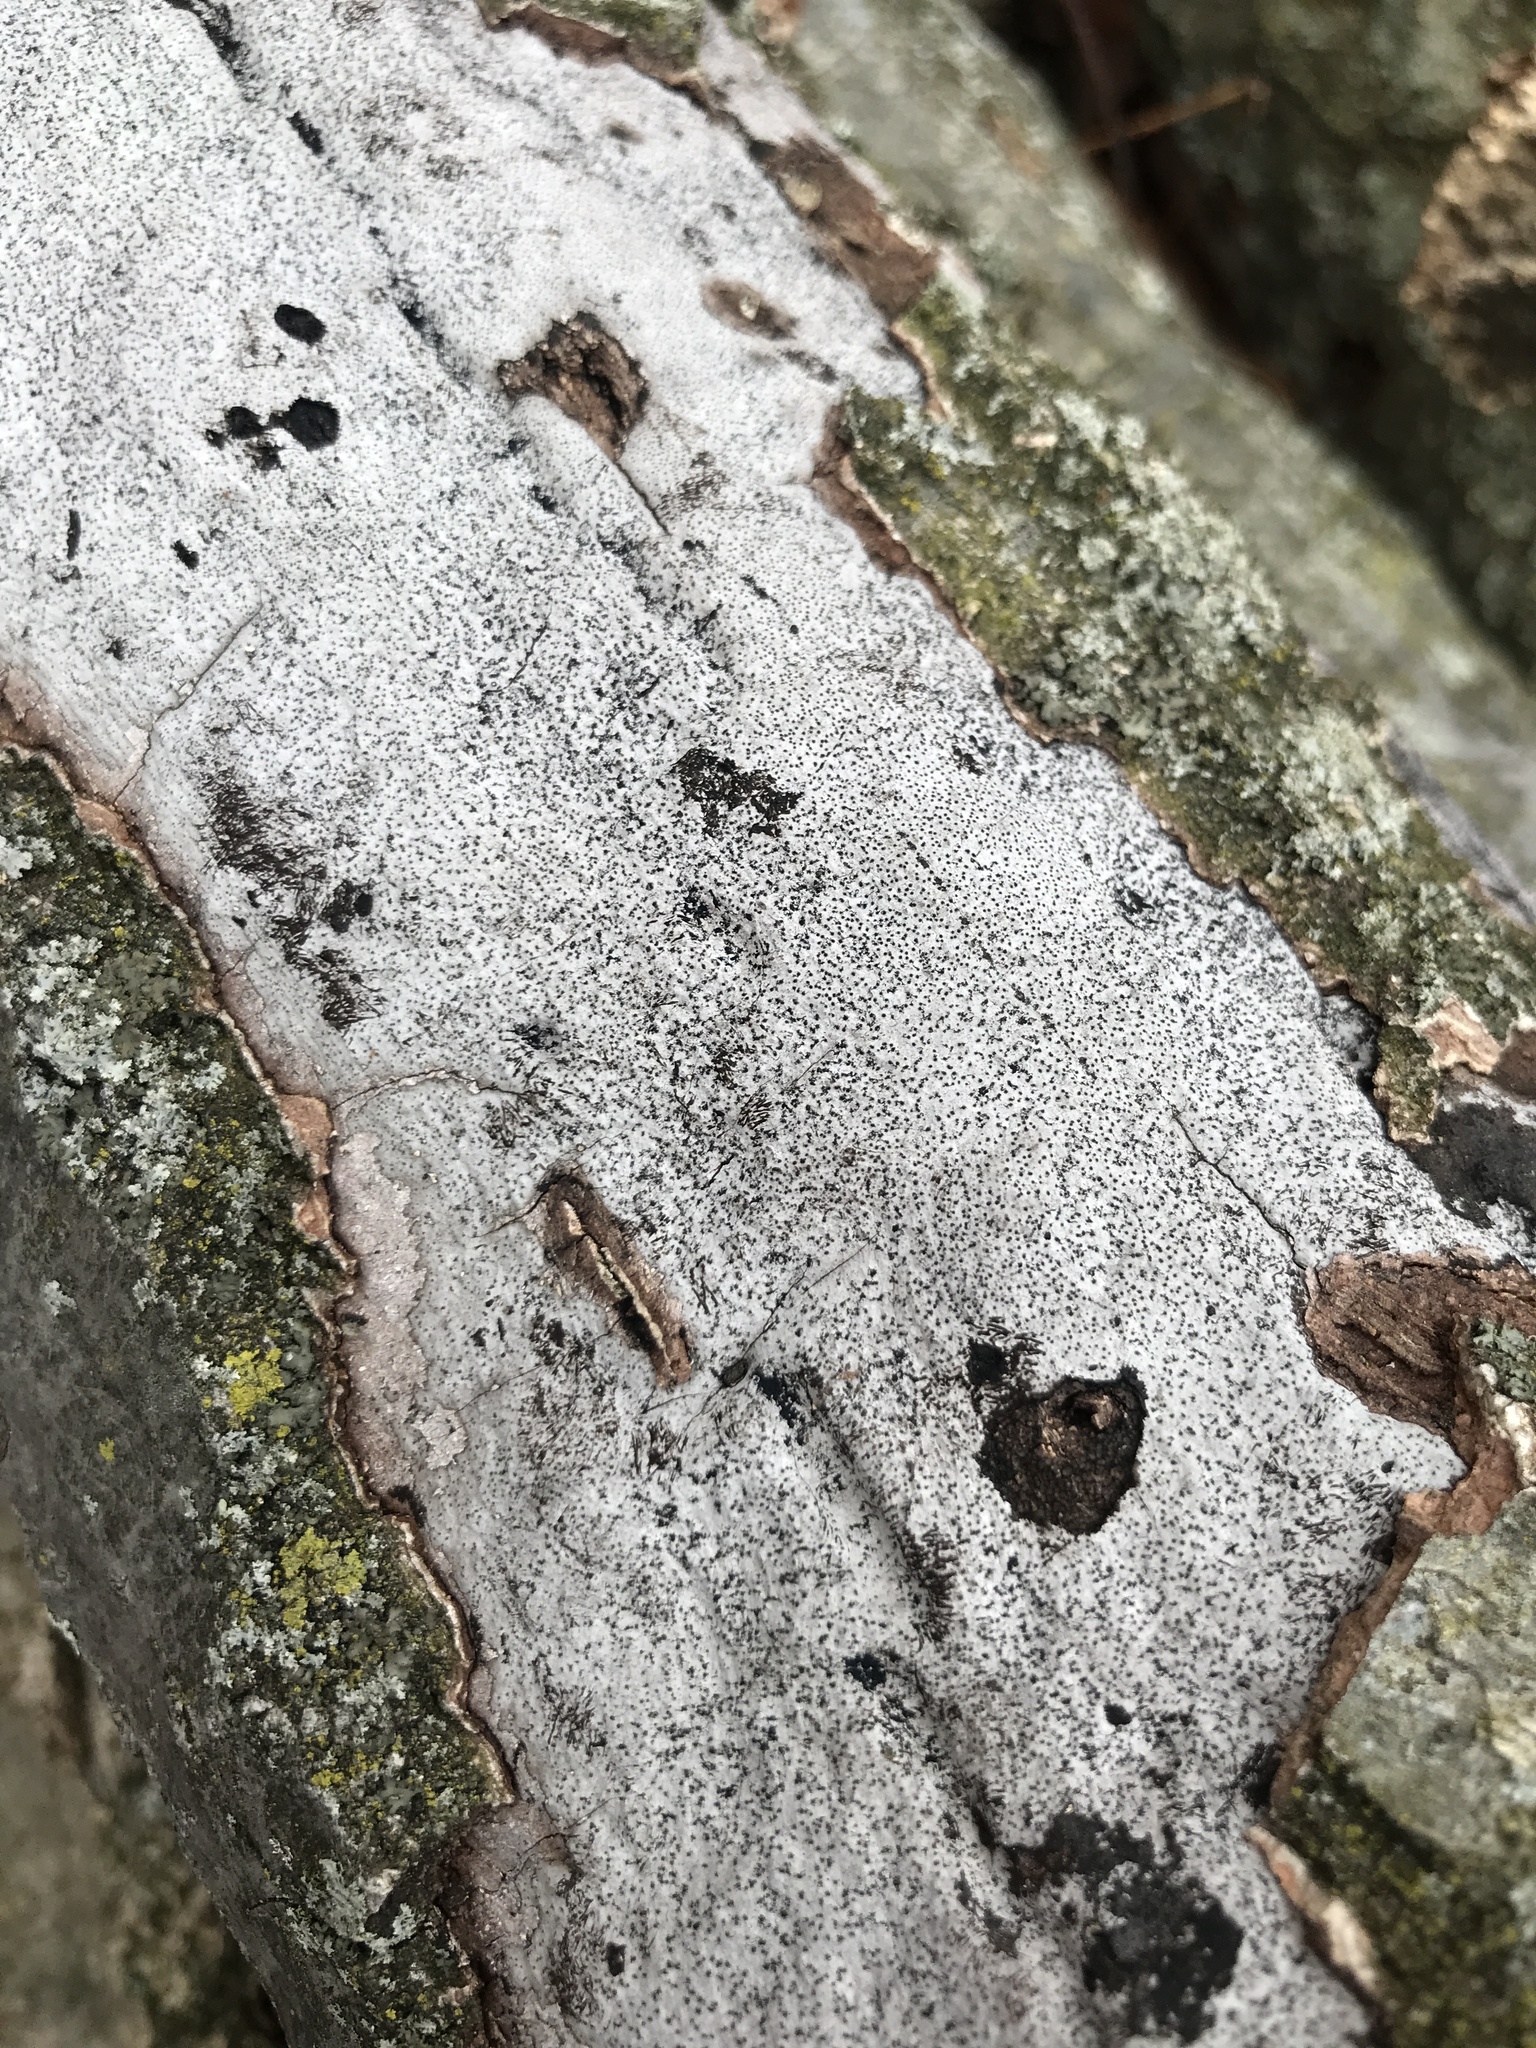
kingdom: Fungi
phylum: Ascomycota
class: Sordariomycetes
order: Xylariales
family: Graphostromataceae
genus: Biscogniauxia
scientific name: Biscogniauxia atropunctata
